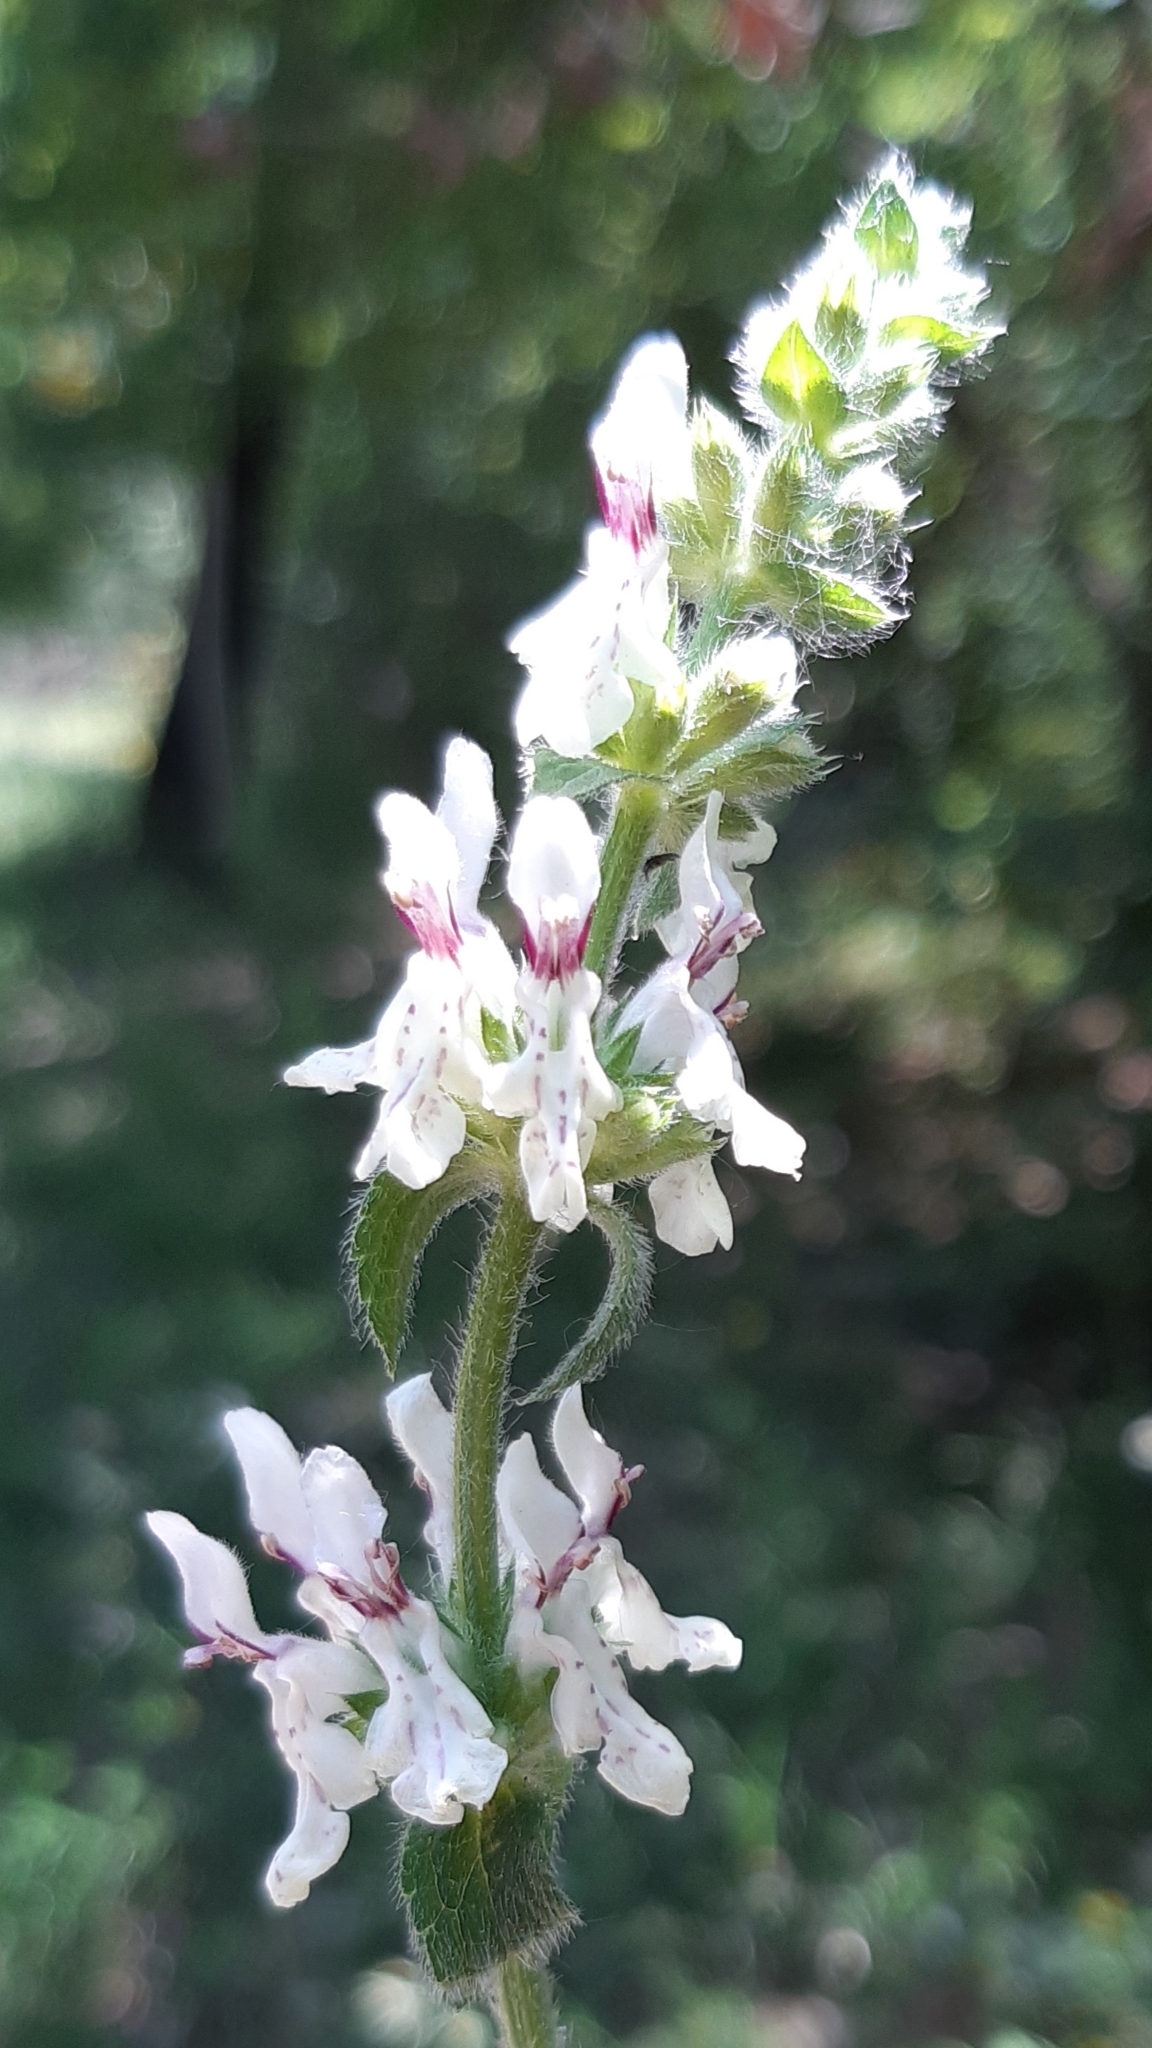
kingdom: Plantae
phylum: Tracheophyta
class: Magnoliopsida
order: Lamiales
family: Lamiaceae
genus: Stachys
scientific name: Stachys recta
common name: Perennial yellow-woundwort
